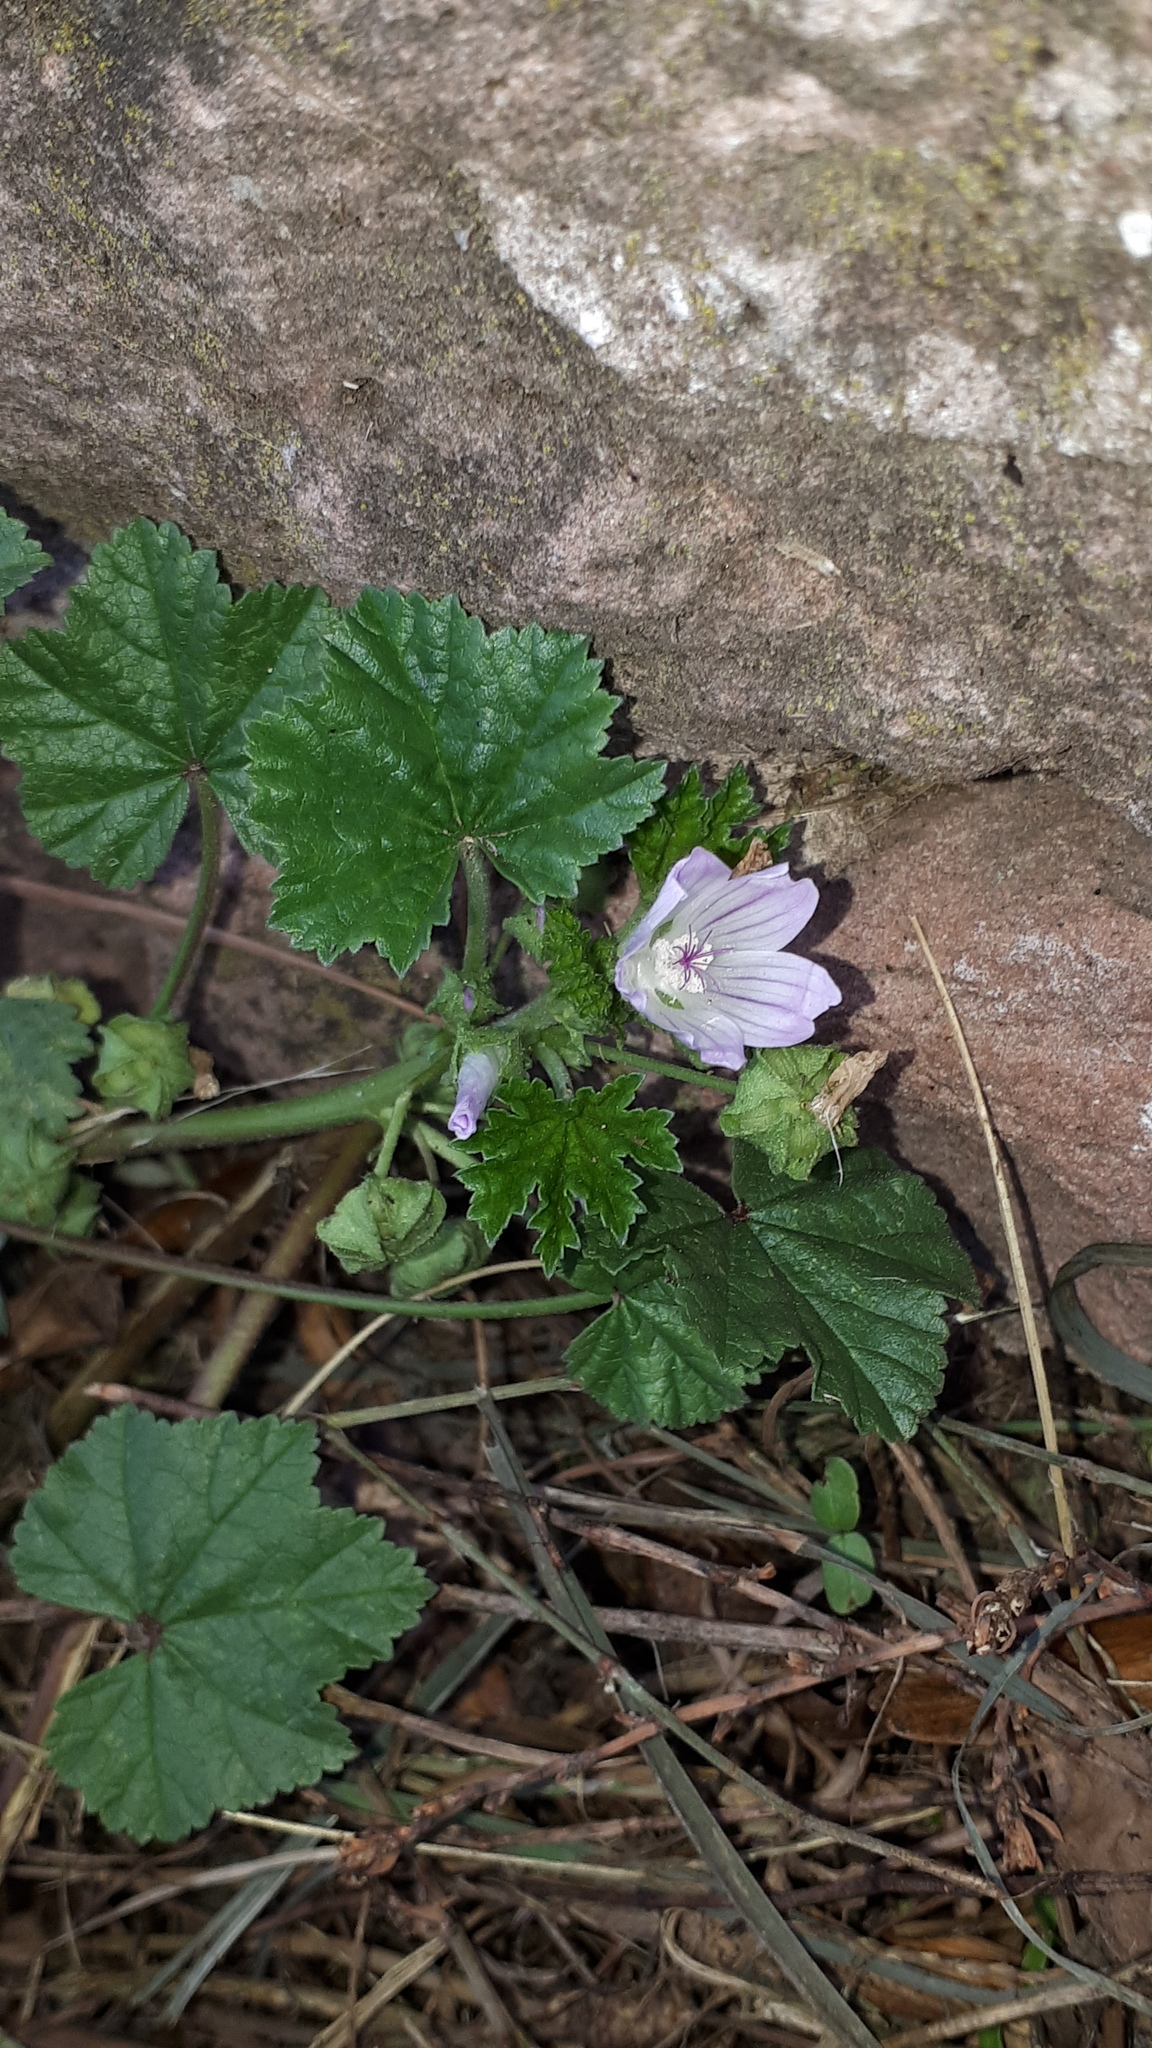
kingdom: Plantae
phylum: Tracheophyta
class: Magnoliopsida
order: Malvales
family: Malvaceae
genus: Malva
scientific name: Malva neglecta
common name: Common mallow
